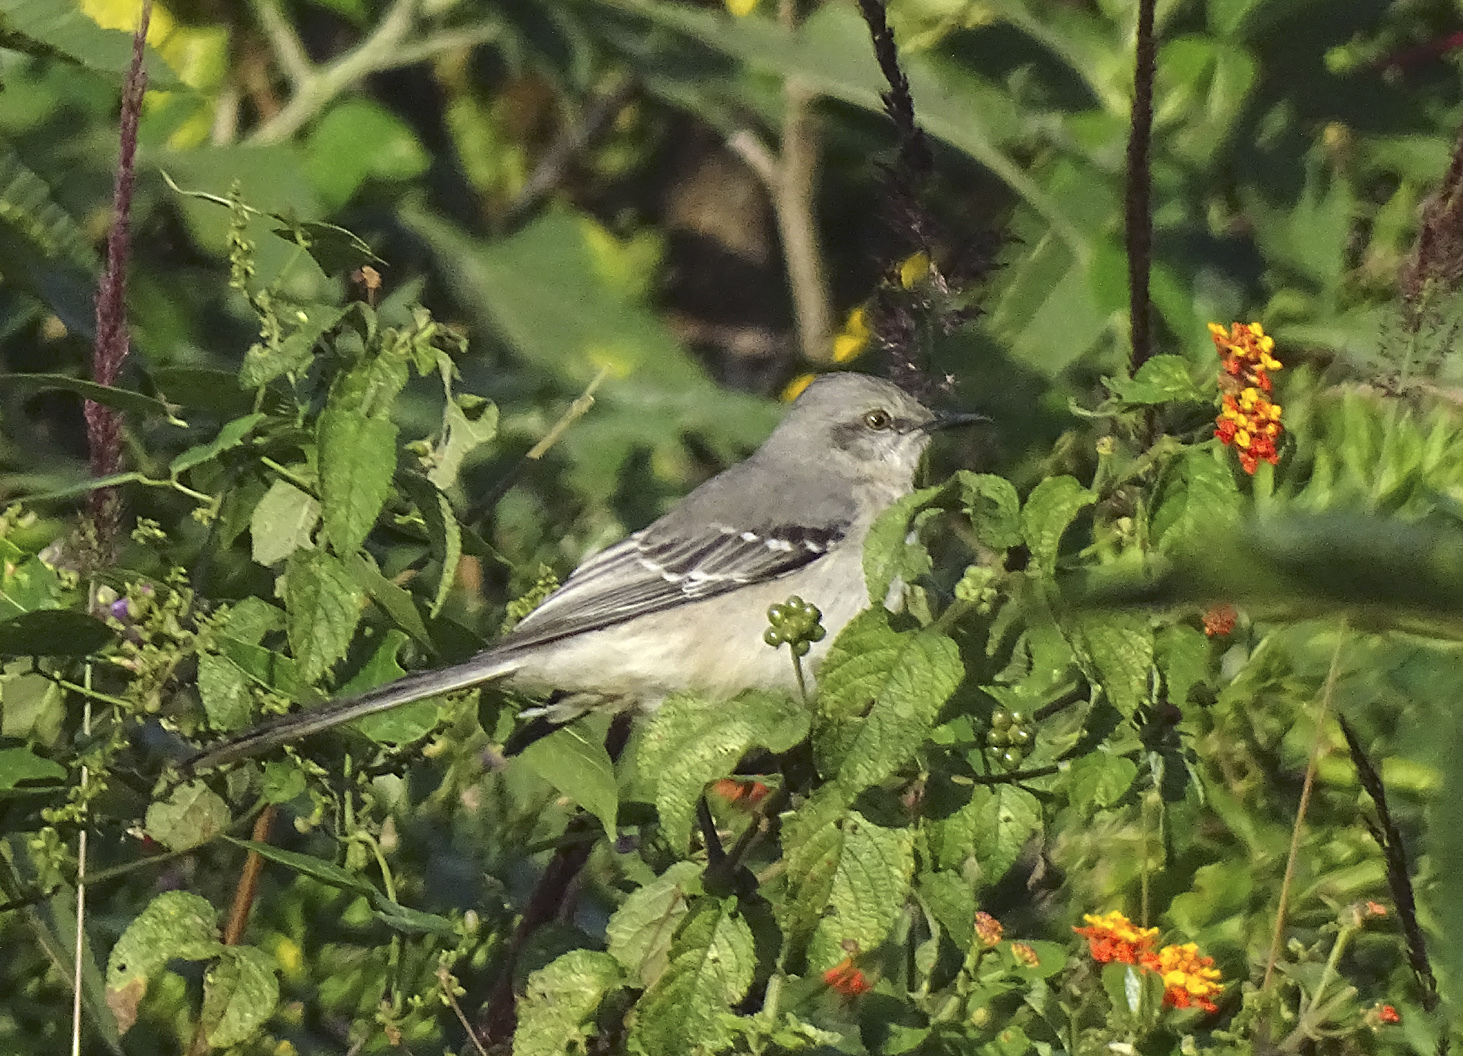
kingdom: Animalia
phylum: Chordata
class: Aves
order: Passeriformes
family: Mimidae
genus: Mimus
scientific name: Mimus gilvus
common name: Tropical mockingbird
